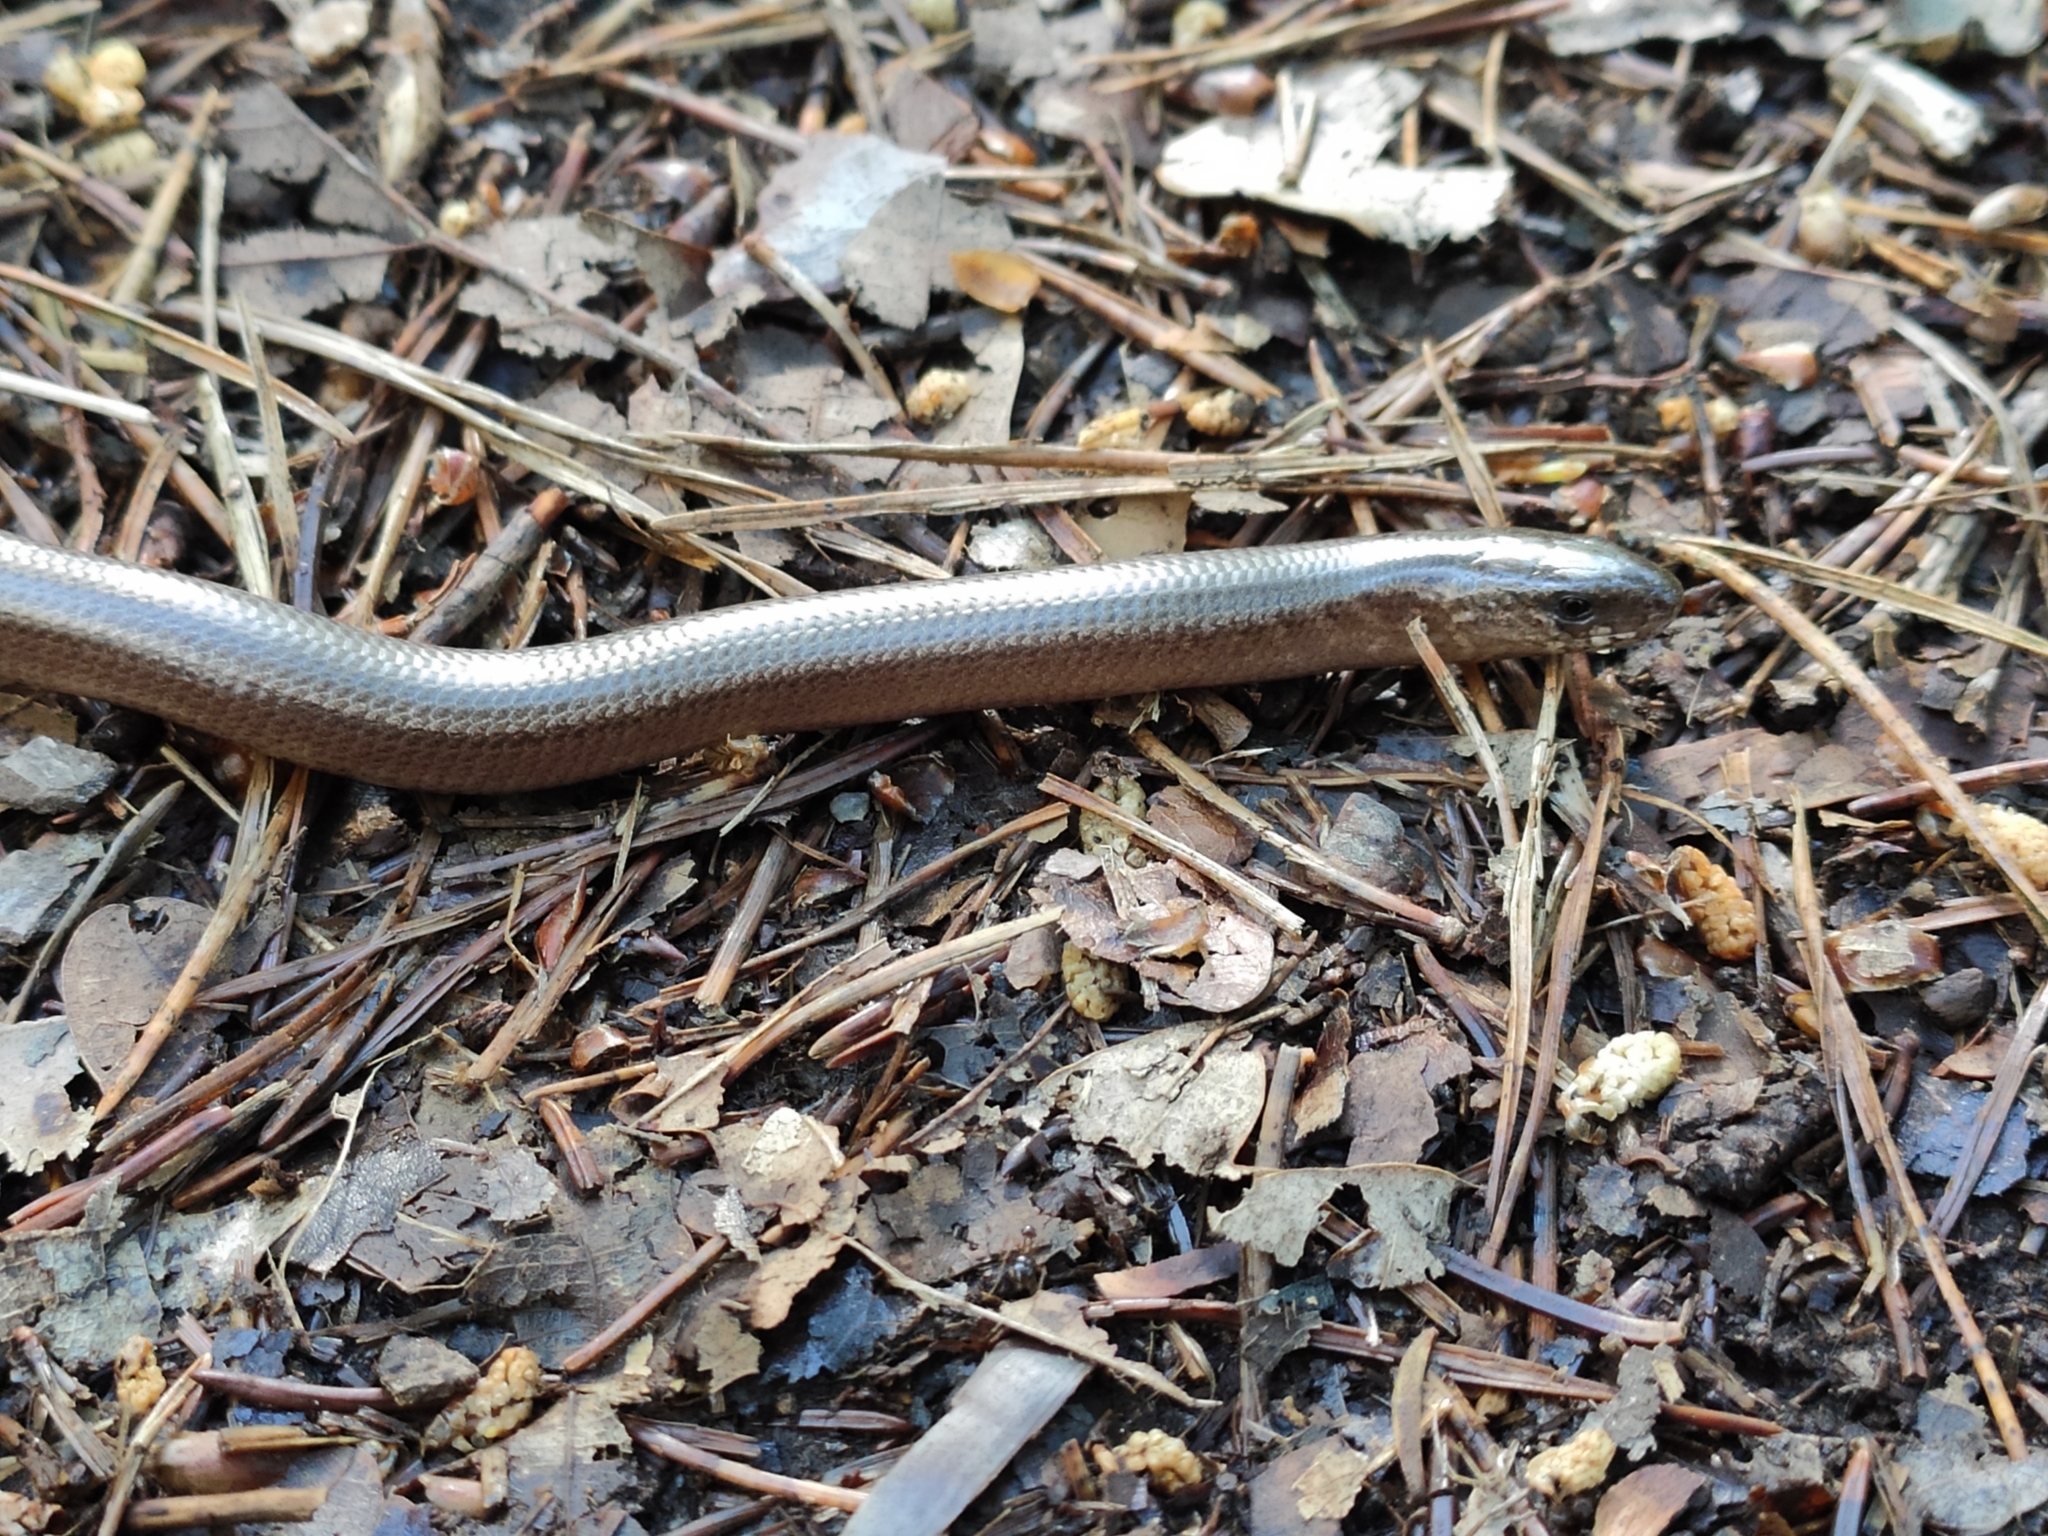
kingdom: Animalia
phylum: Chordata
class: Squamata
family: Anguidae
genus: Anguis
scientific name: Anguis fragilis
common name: Slow worm
